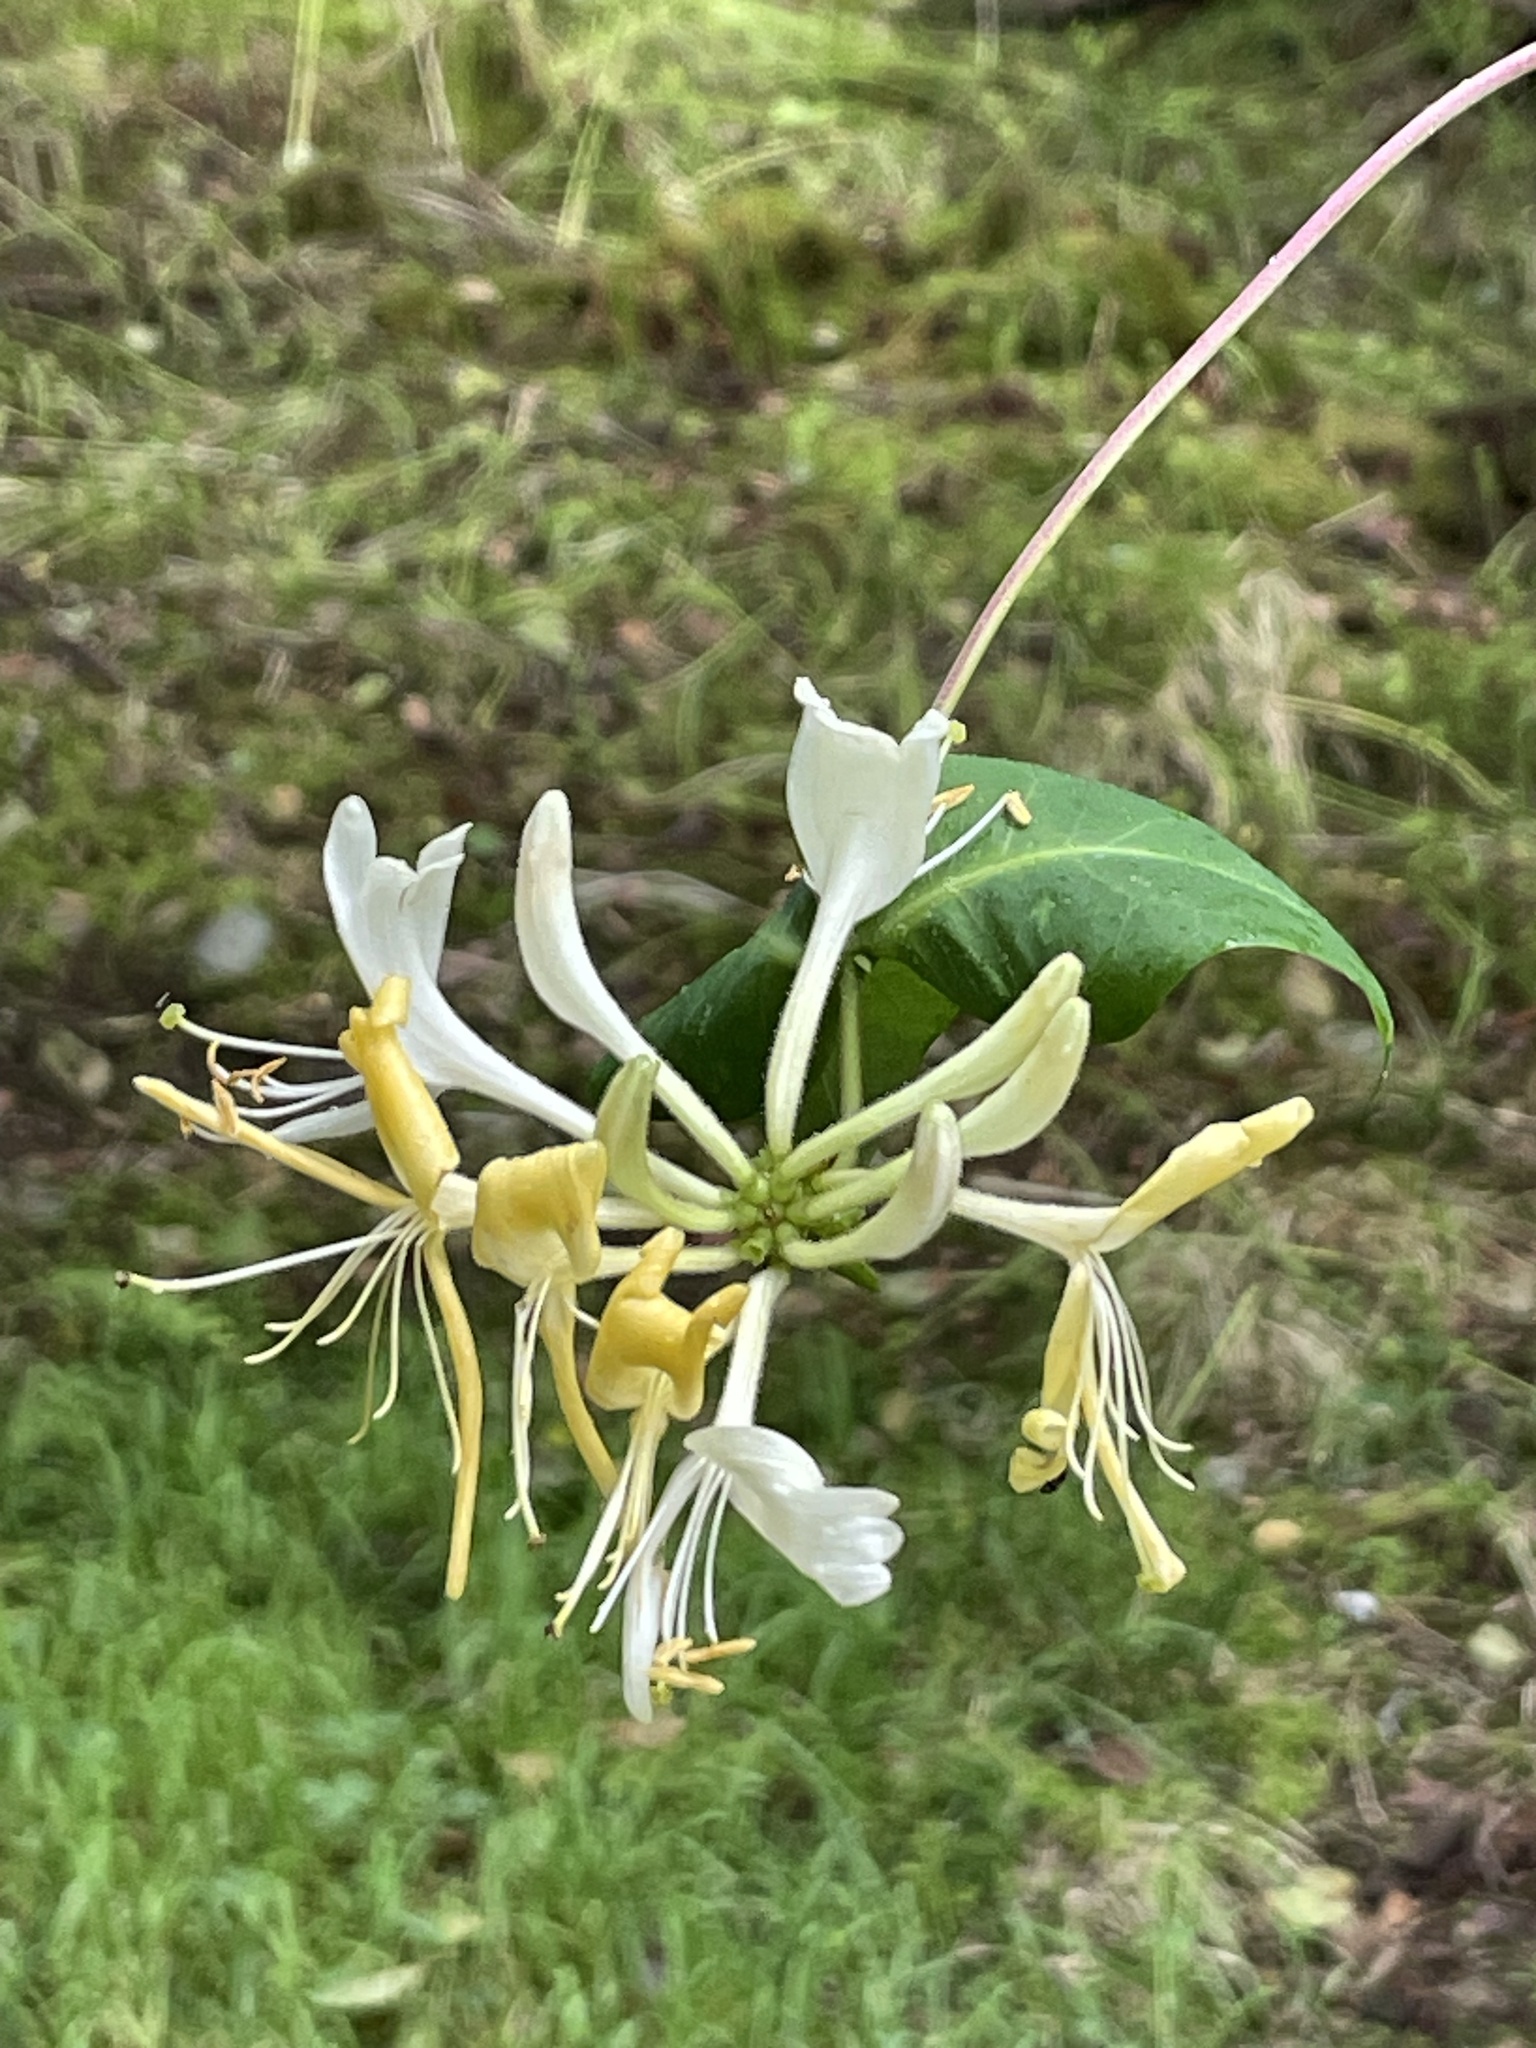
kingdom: Plantae
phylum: Tracheophyta
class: Magnoliopsida
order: Dipsacales
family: Caprifoliaceae
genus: Lonicera
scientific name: Lonicera periclymenum
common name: European honeysuckle
